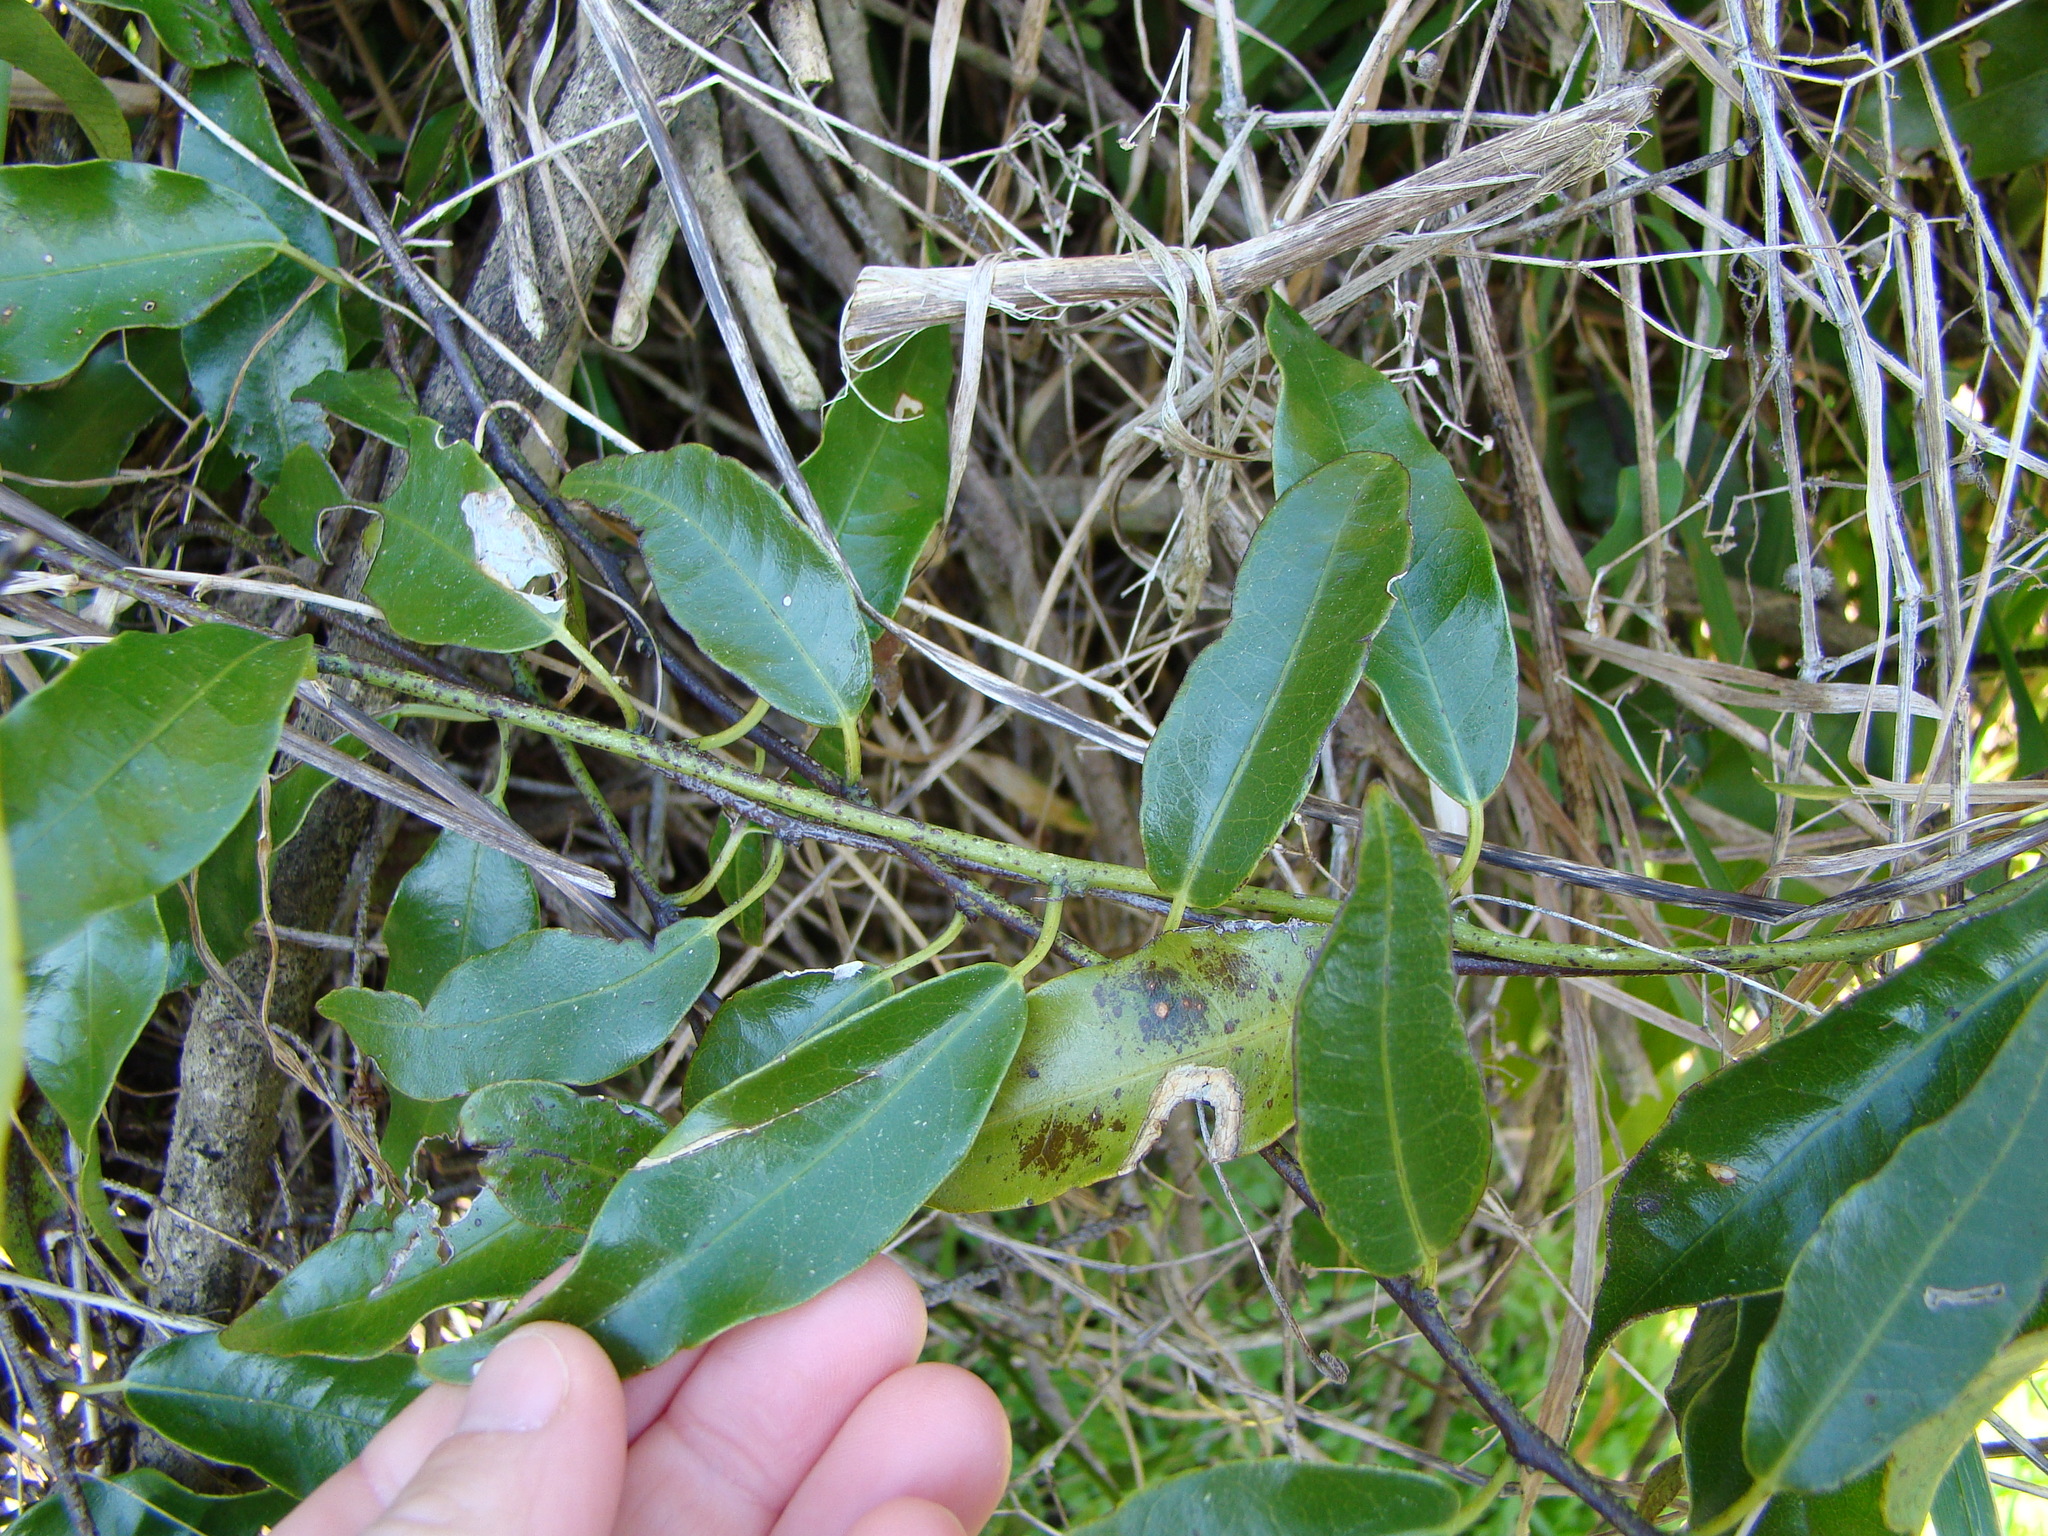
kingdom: Plantae
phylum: Tracheophyta
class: Magnoliopsida
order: Malpighiales
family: Passifloraceae
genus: Passiflora
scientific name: Passiflora tetrandra
